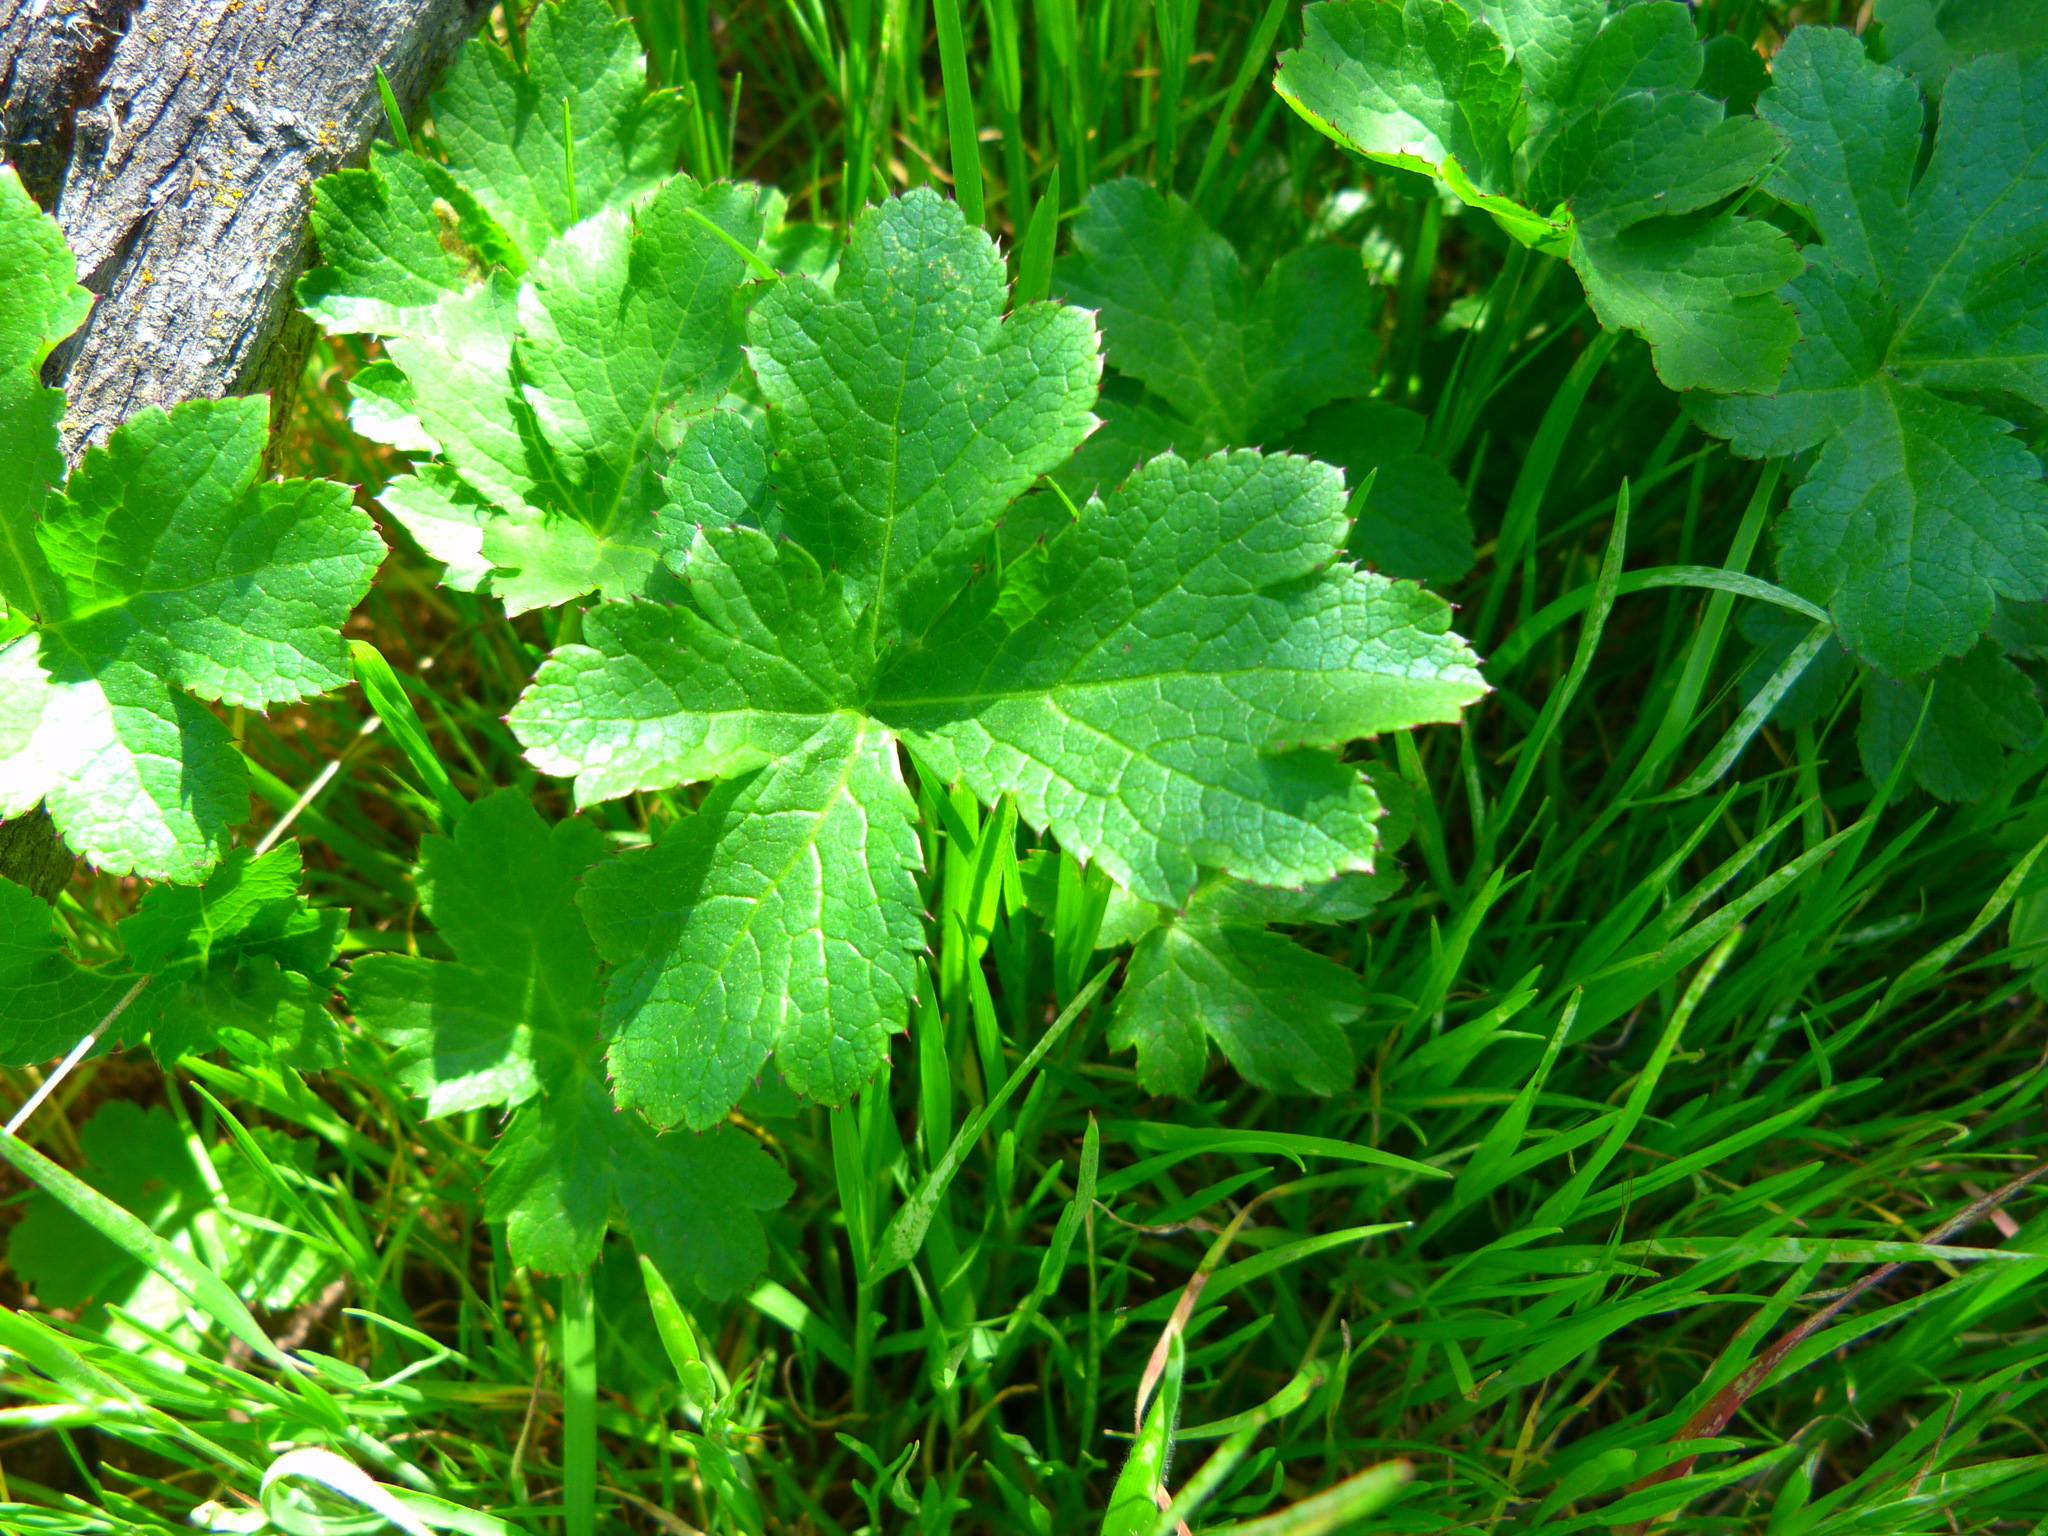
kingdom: Plantae
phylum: Tracheophyta
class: Magnoliopsida
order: Apiales
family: Apiaceae
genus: Sanicula
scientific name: Sanicula crassicaulis
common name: Western snakeroot
